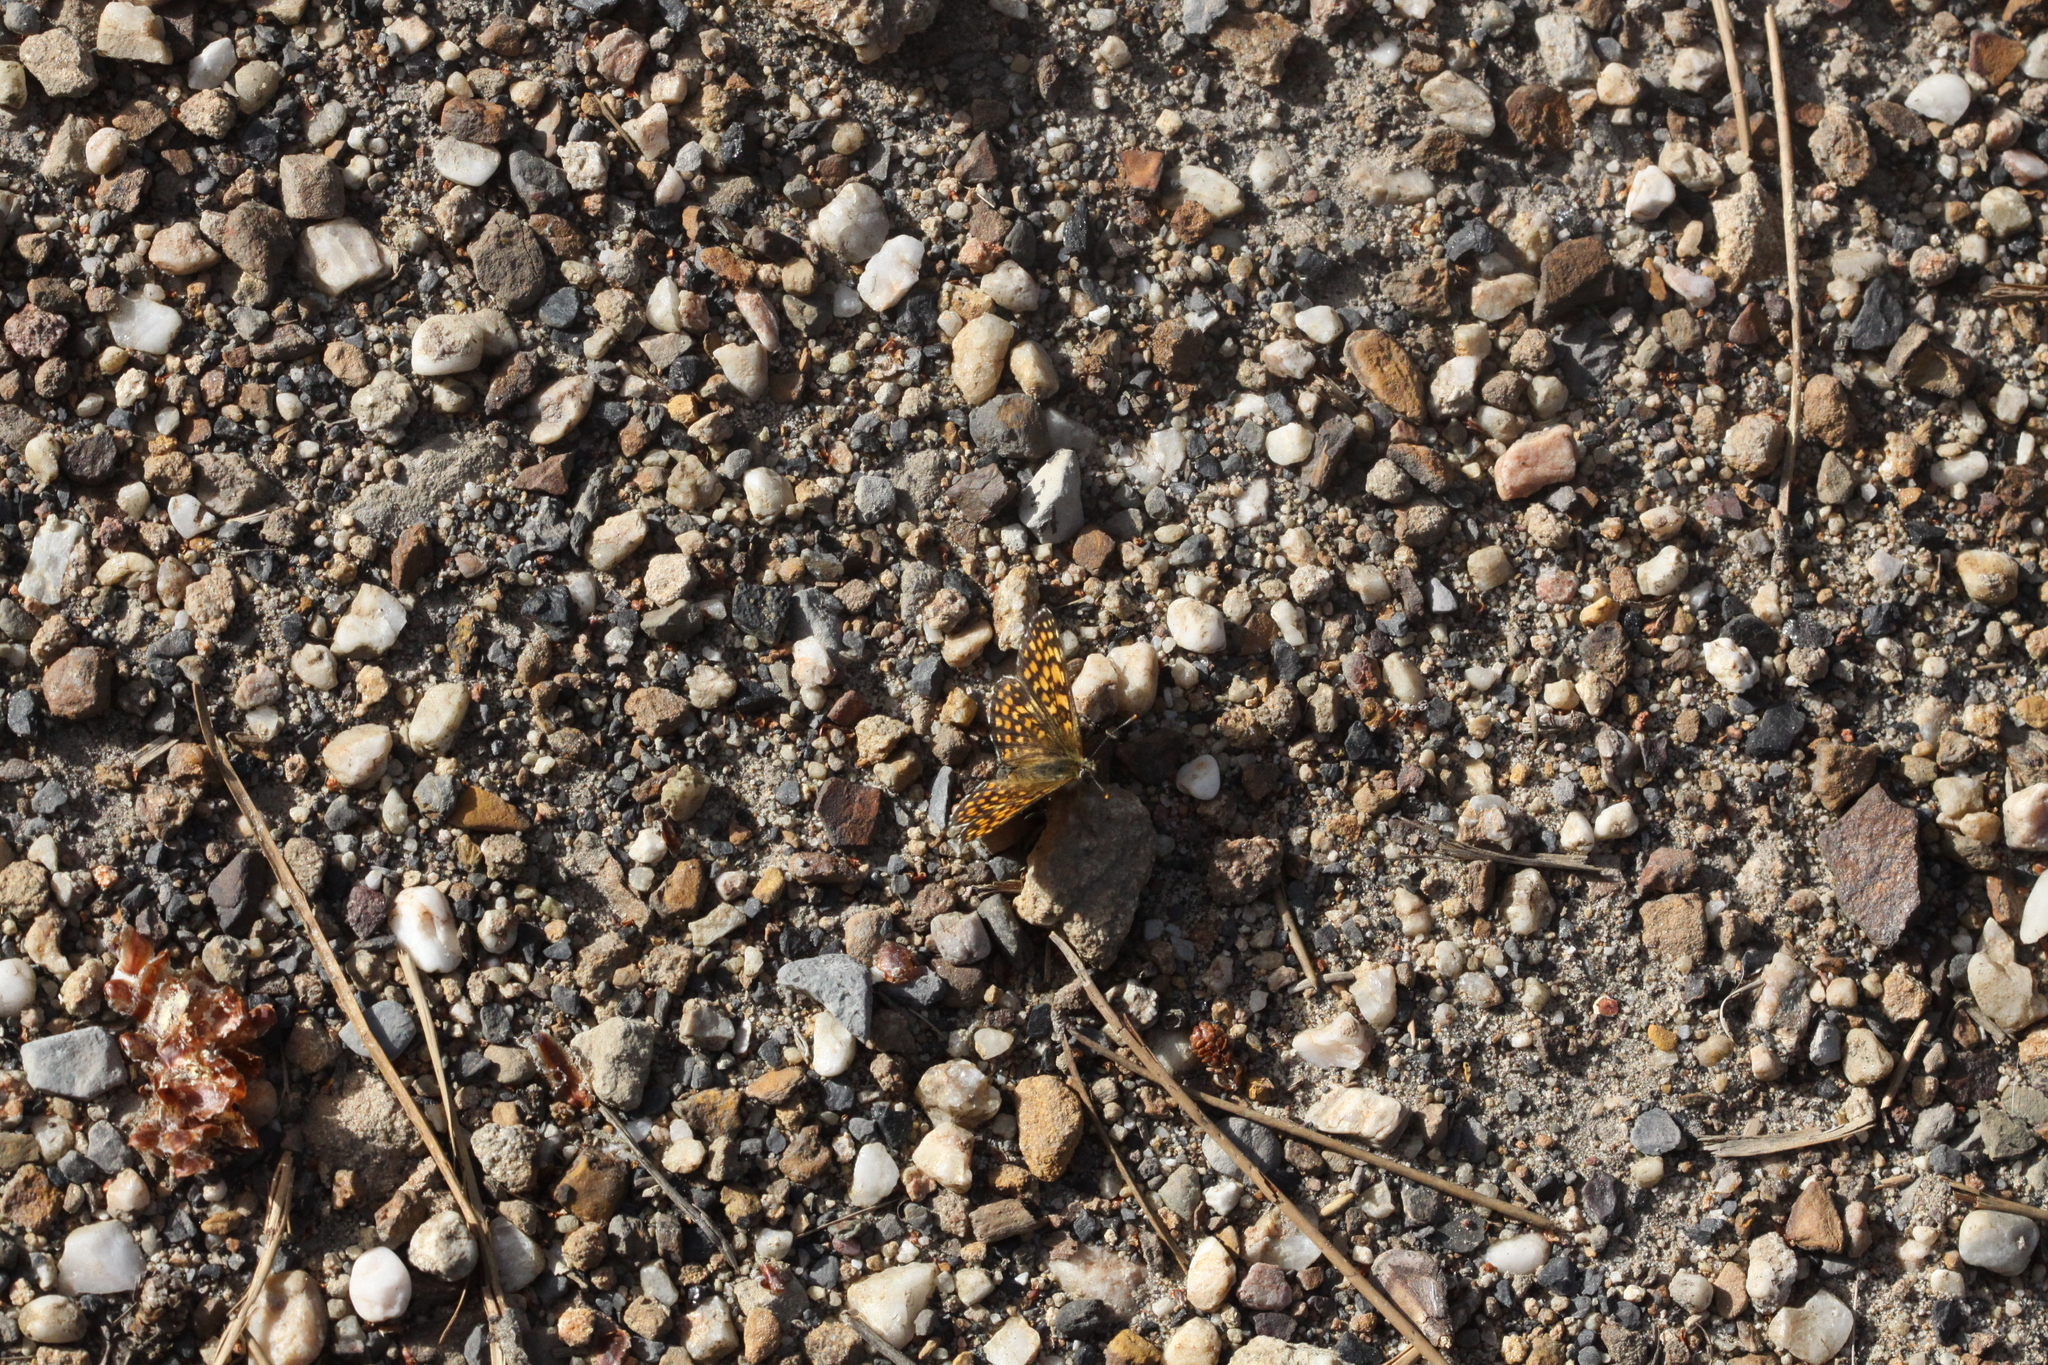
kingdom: Animalia
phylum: Arthropoda
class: Insecta
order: Lepidoptera
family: Nymphalidae
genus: Mellicta
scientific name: Mellicta athalia
